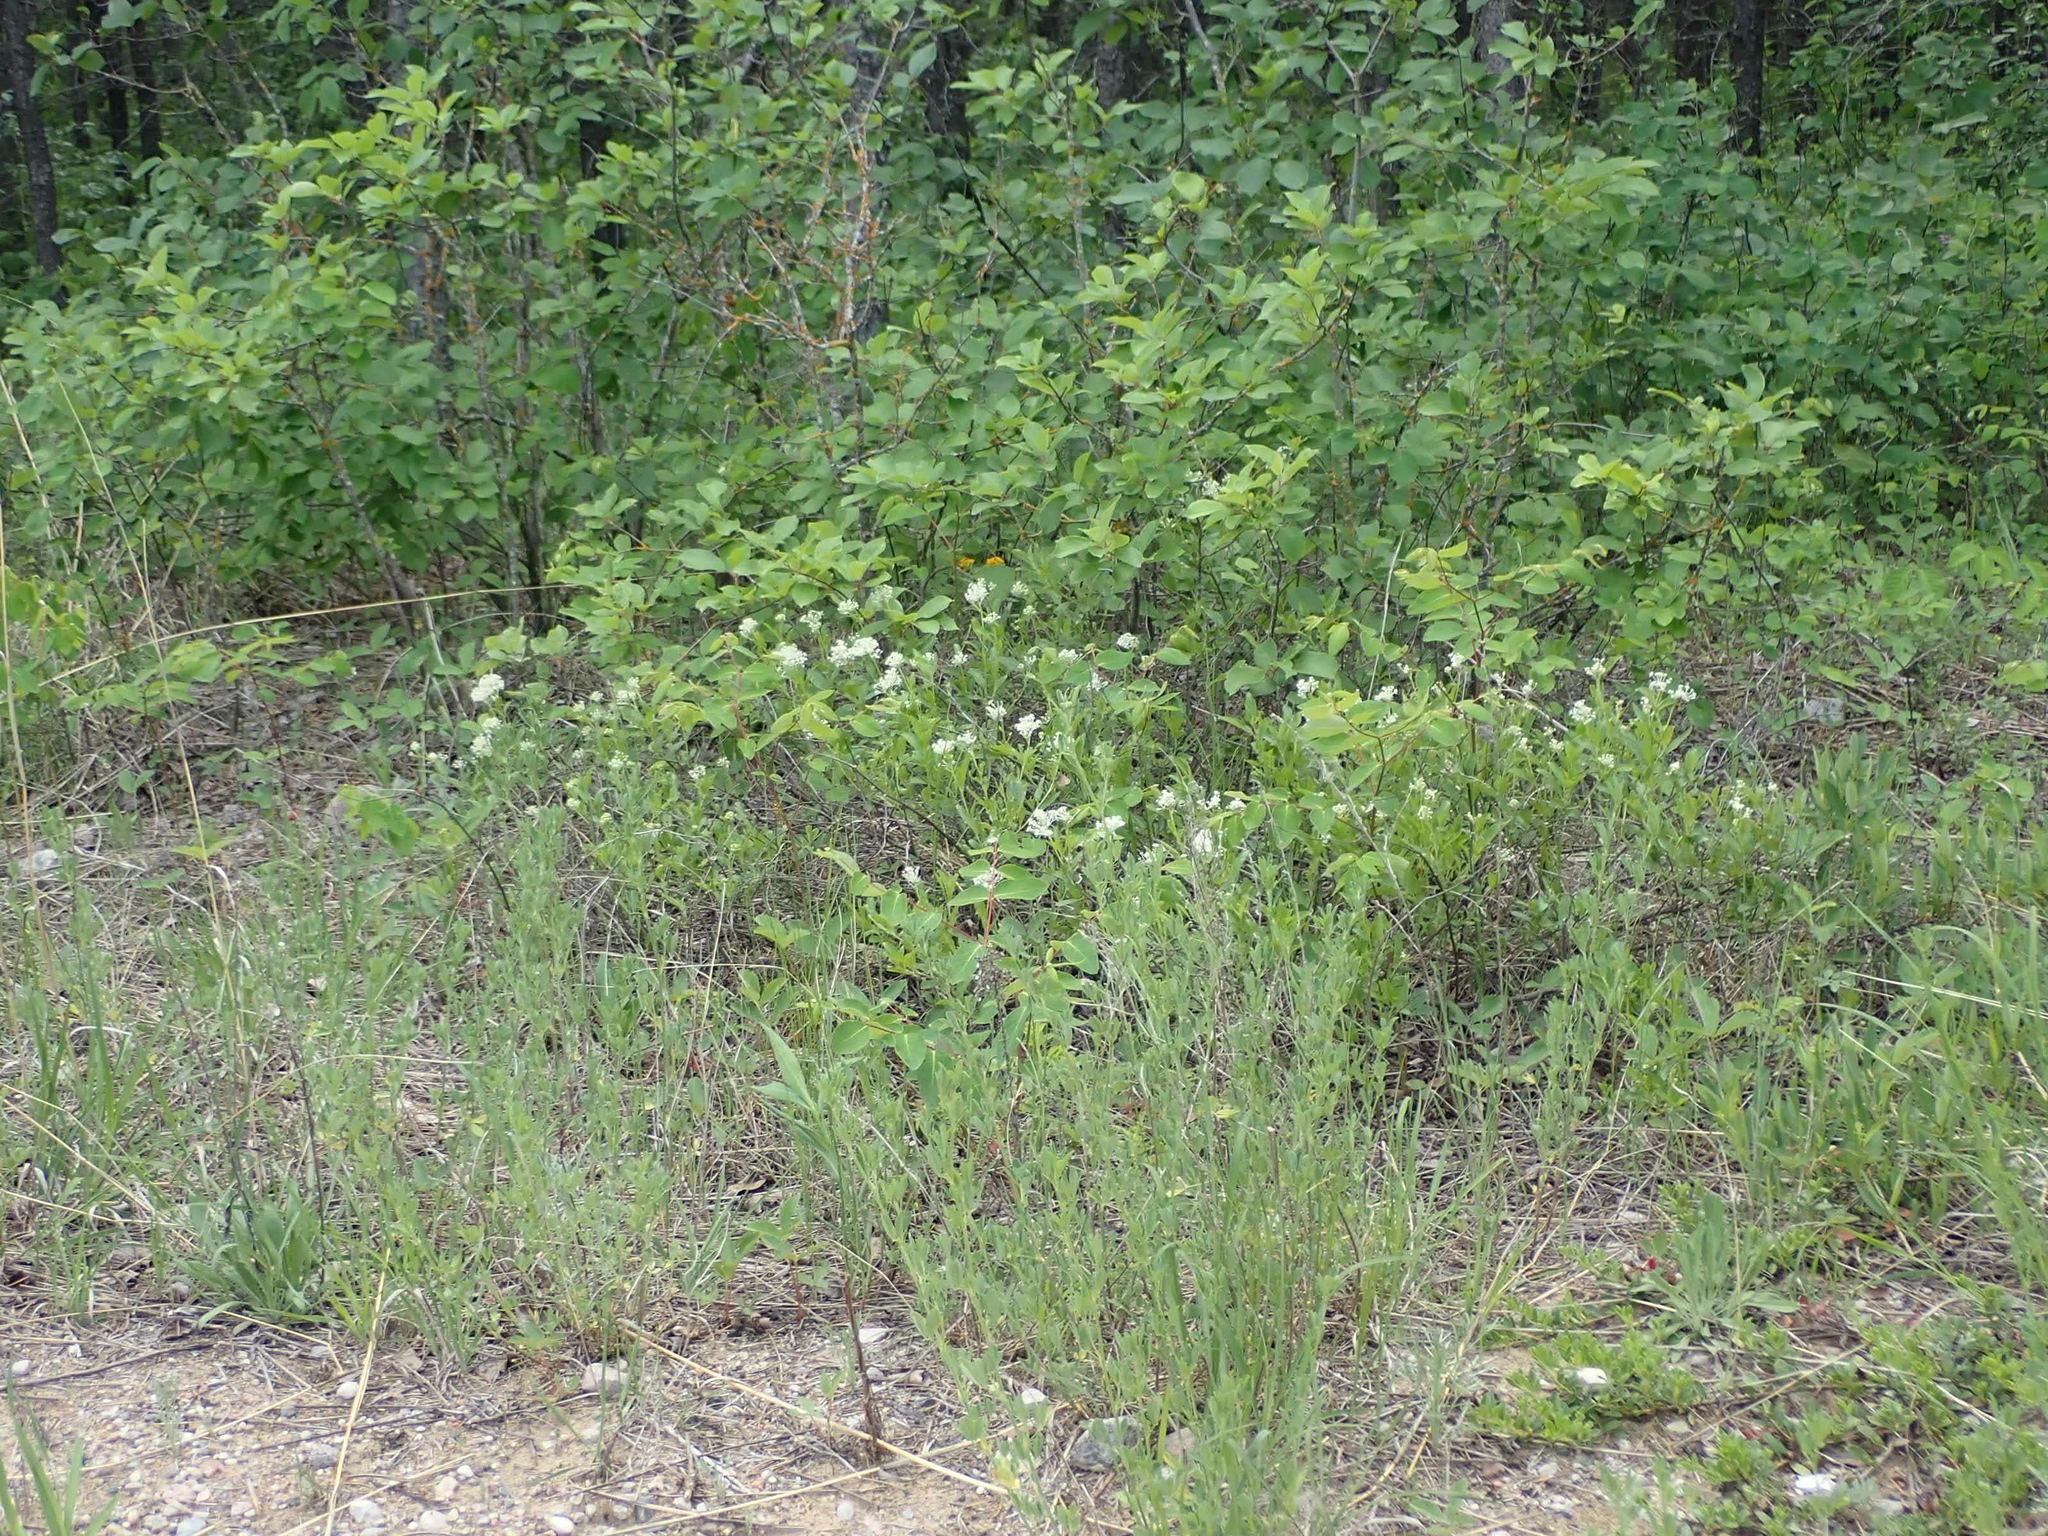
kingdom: Plantae
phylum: Tracheophyta
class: Magnoliopsida
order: Rosales
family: Rhamnaceae
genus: Ceanothus
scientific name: Ceanothus herbaceus
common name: Inland ceanothus
